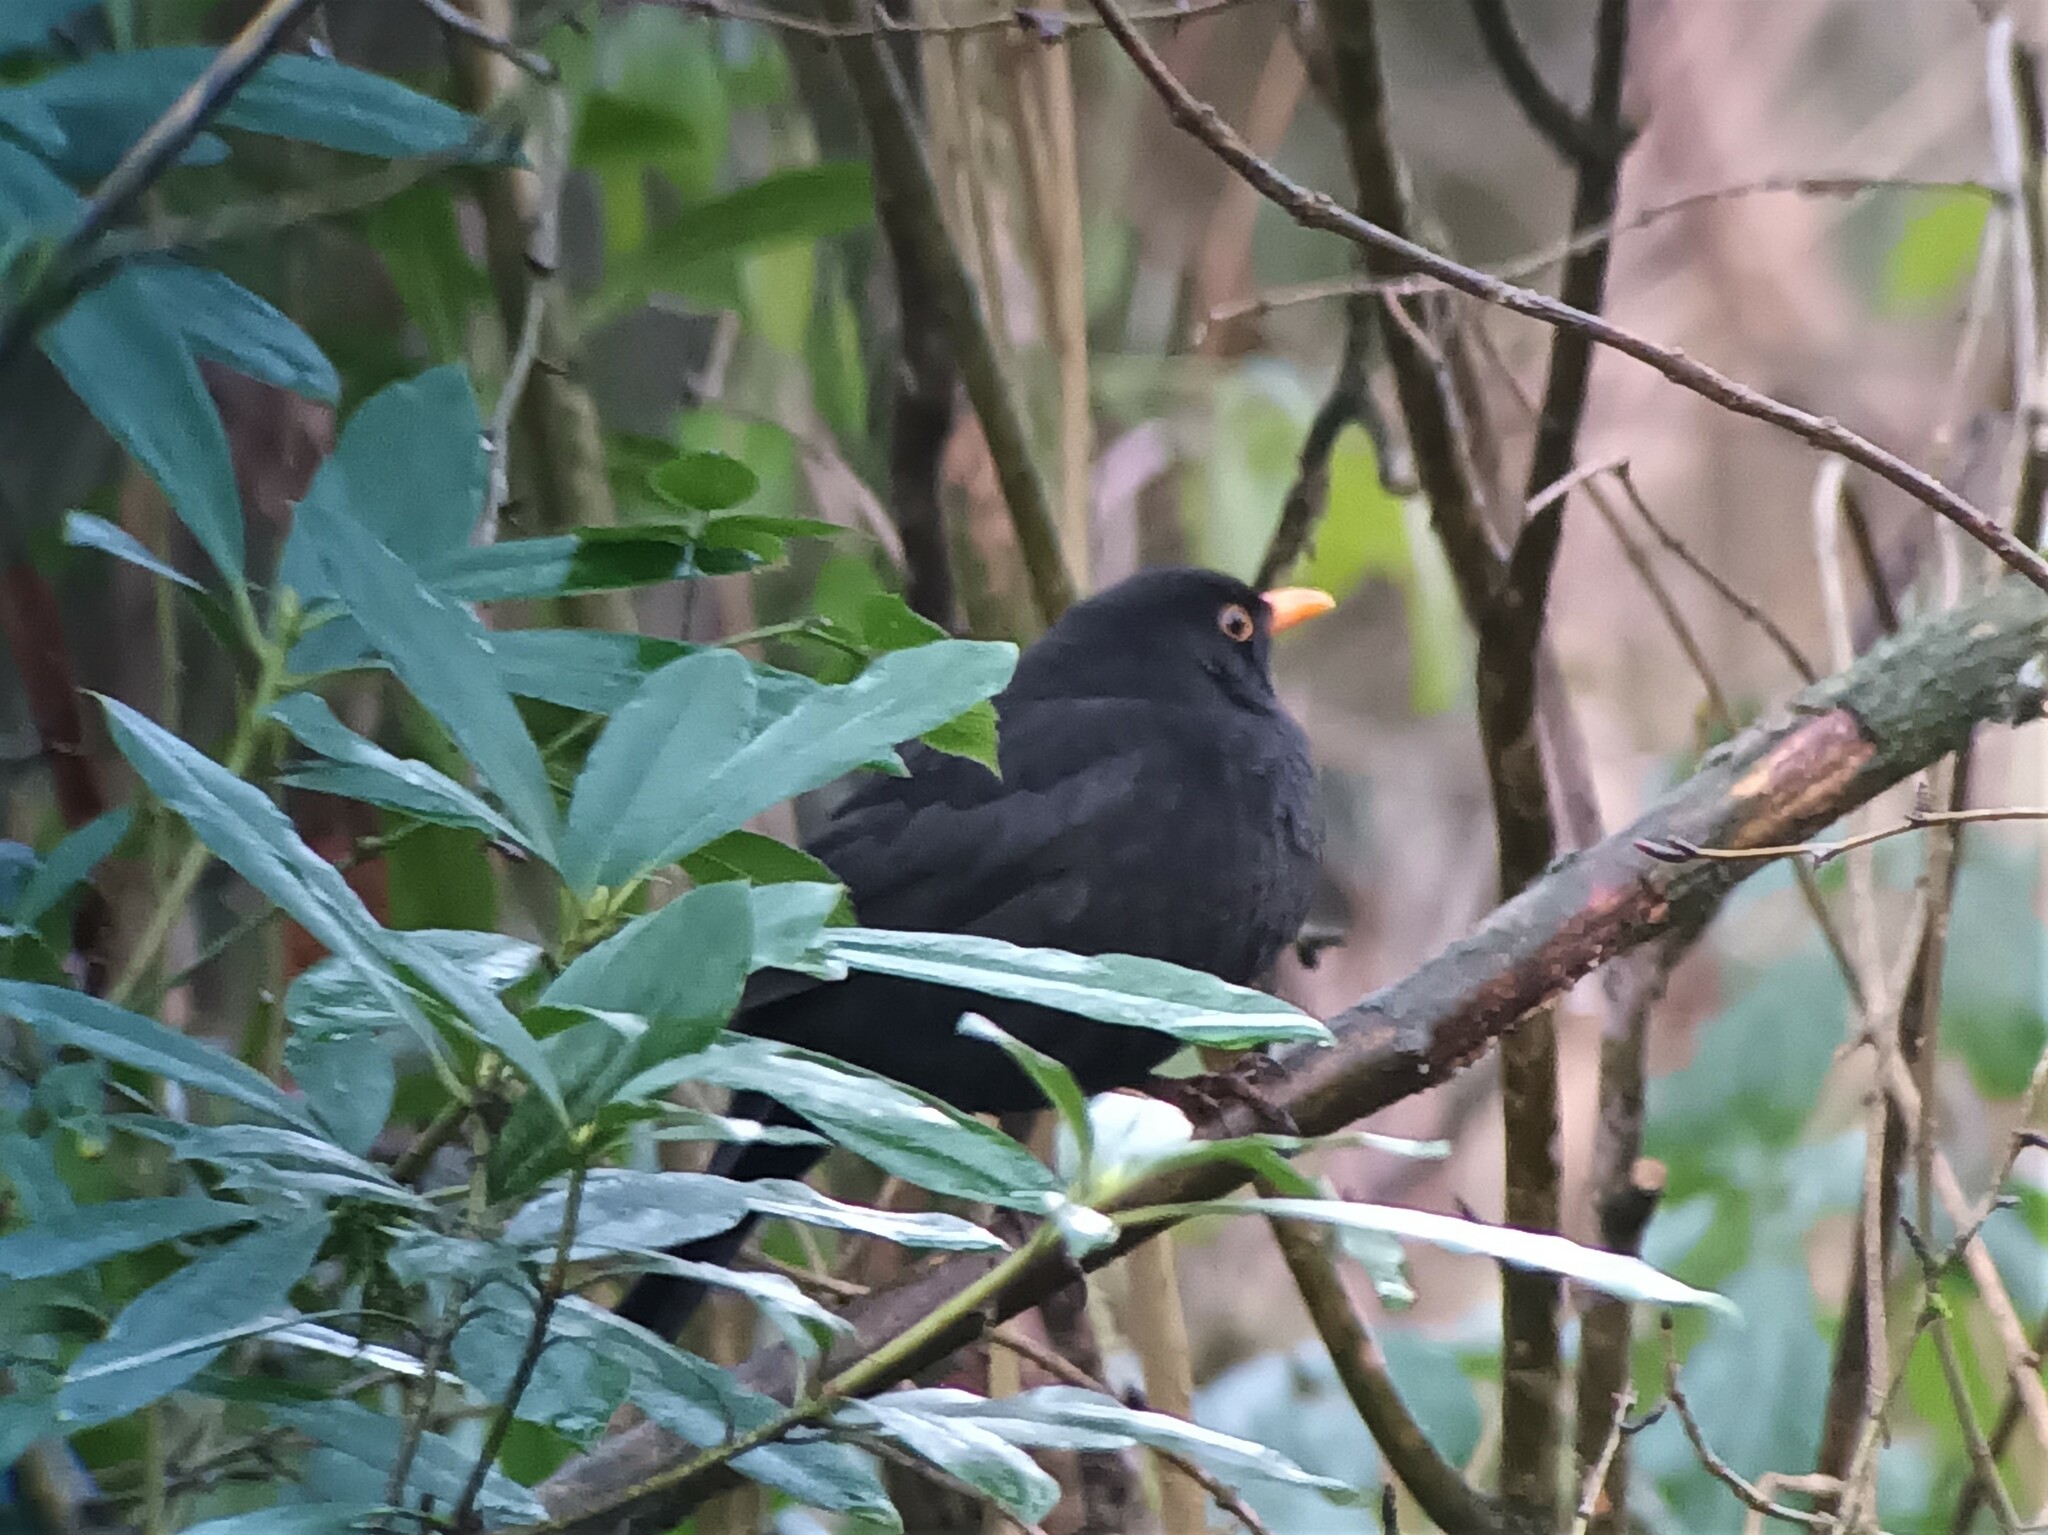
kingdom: Animalia
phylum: Chordata
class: Aves
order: Passeriformes
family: Turdidae
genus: Turdus
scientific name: Turdus merula
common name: Common blackbird
